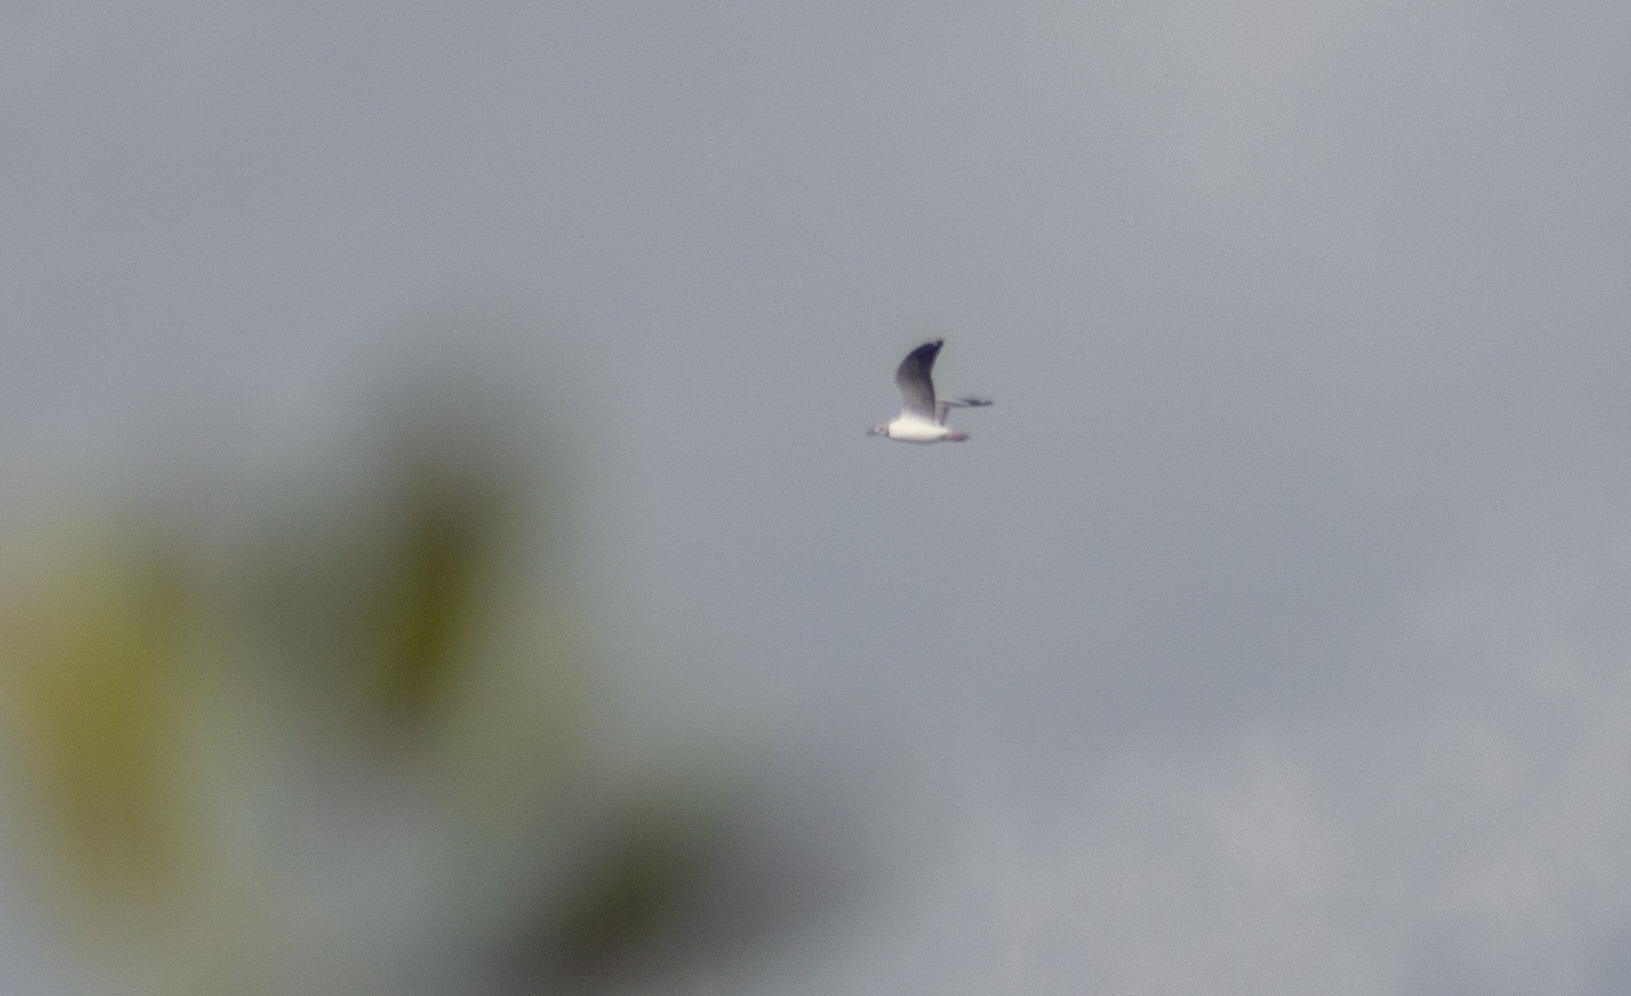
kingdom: Animalia
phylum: Chordata
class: Aves
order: Charadriiformes
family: Laridae
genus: Chroicocephalus
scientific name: Chroicocephalus cirrocephalus
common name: Grey-headed gull
